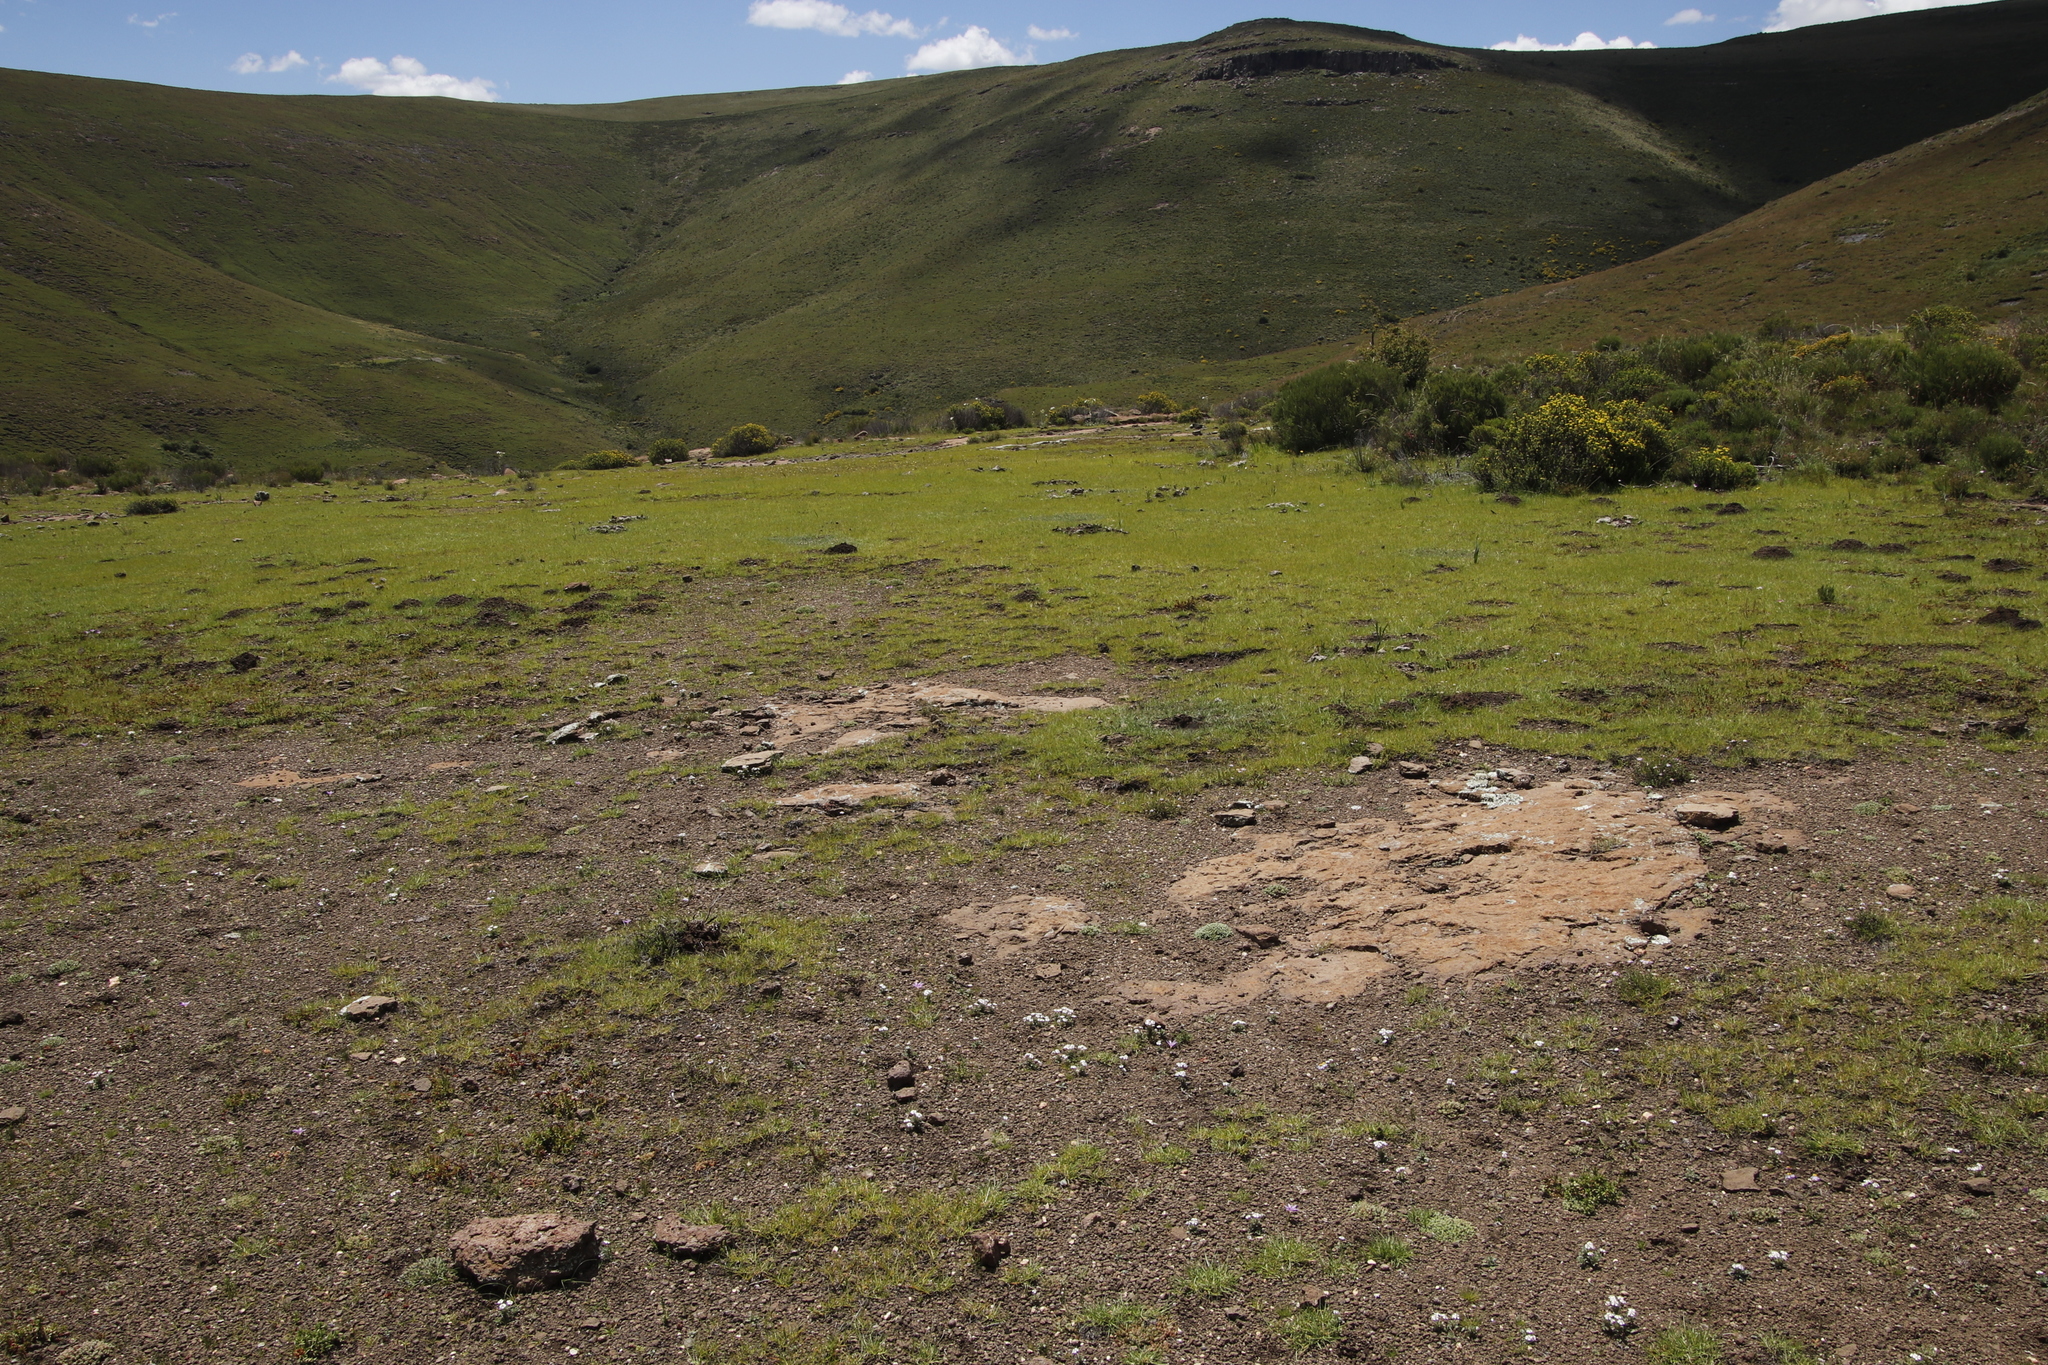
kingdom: Plantae
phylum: Tracheophyta
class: Magnoliopsida
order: Lamiales
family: Scrophulariaceae
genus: Zaluzianskya
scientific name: Zaluzianskya crocea
